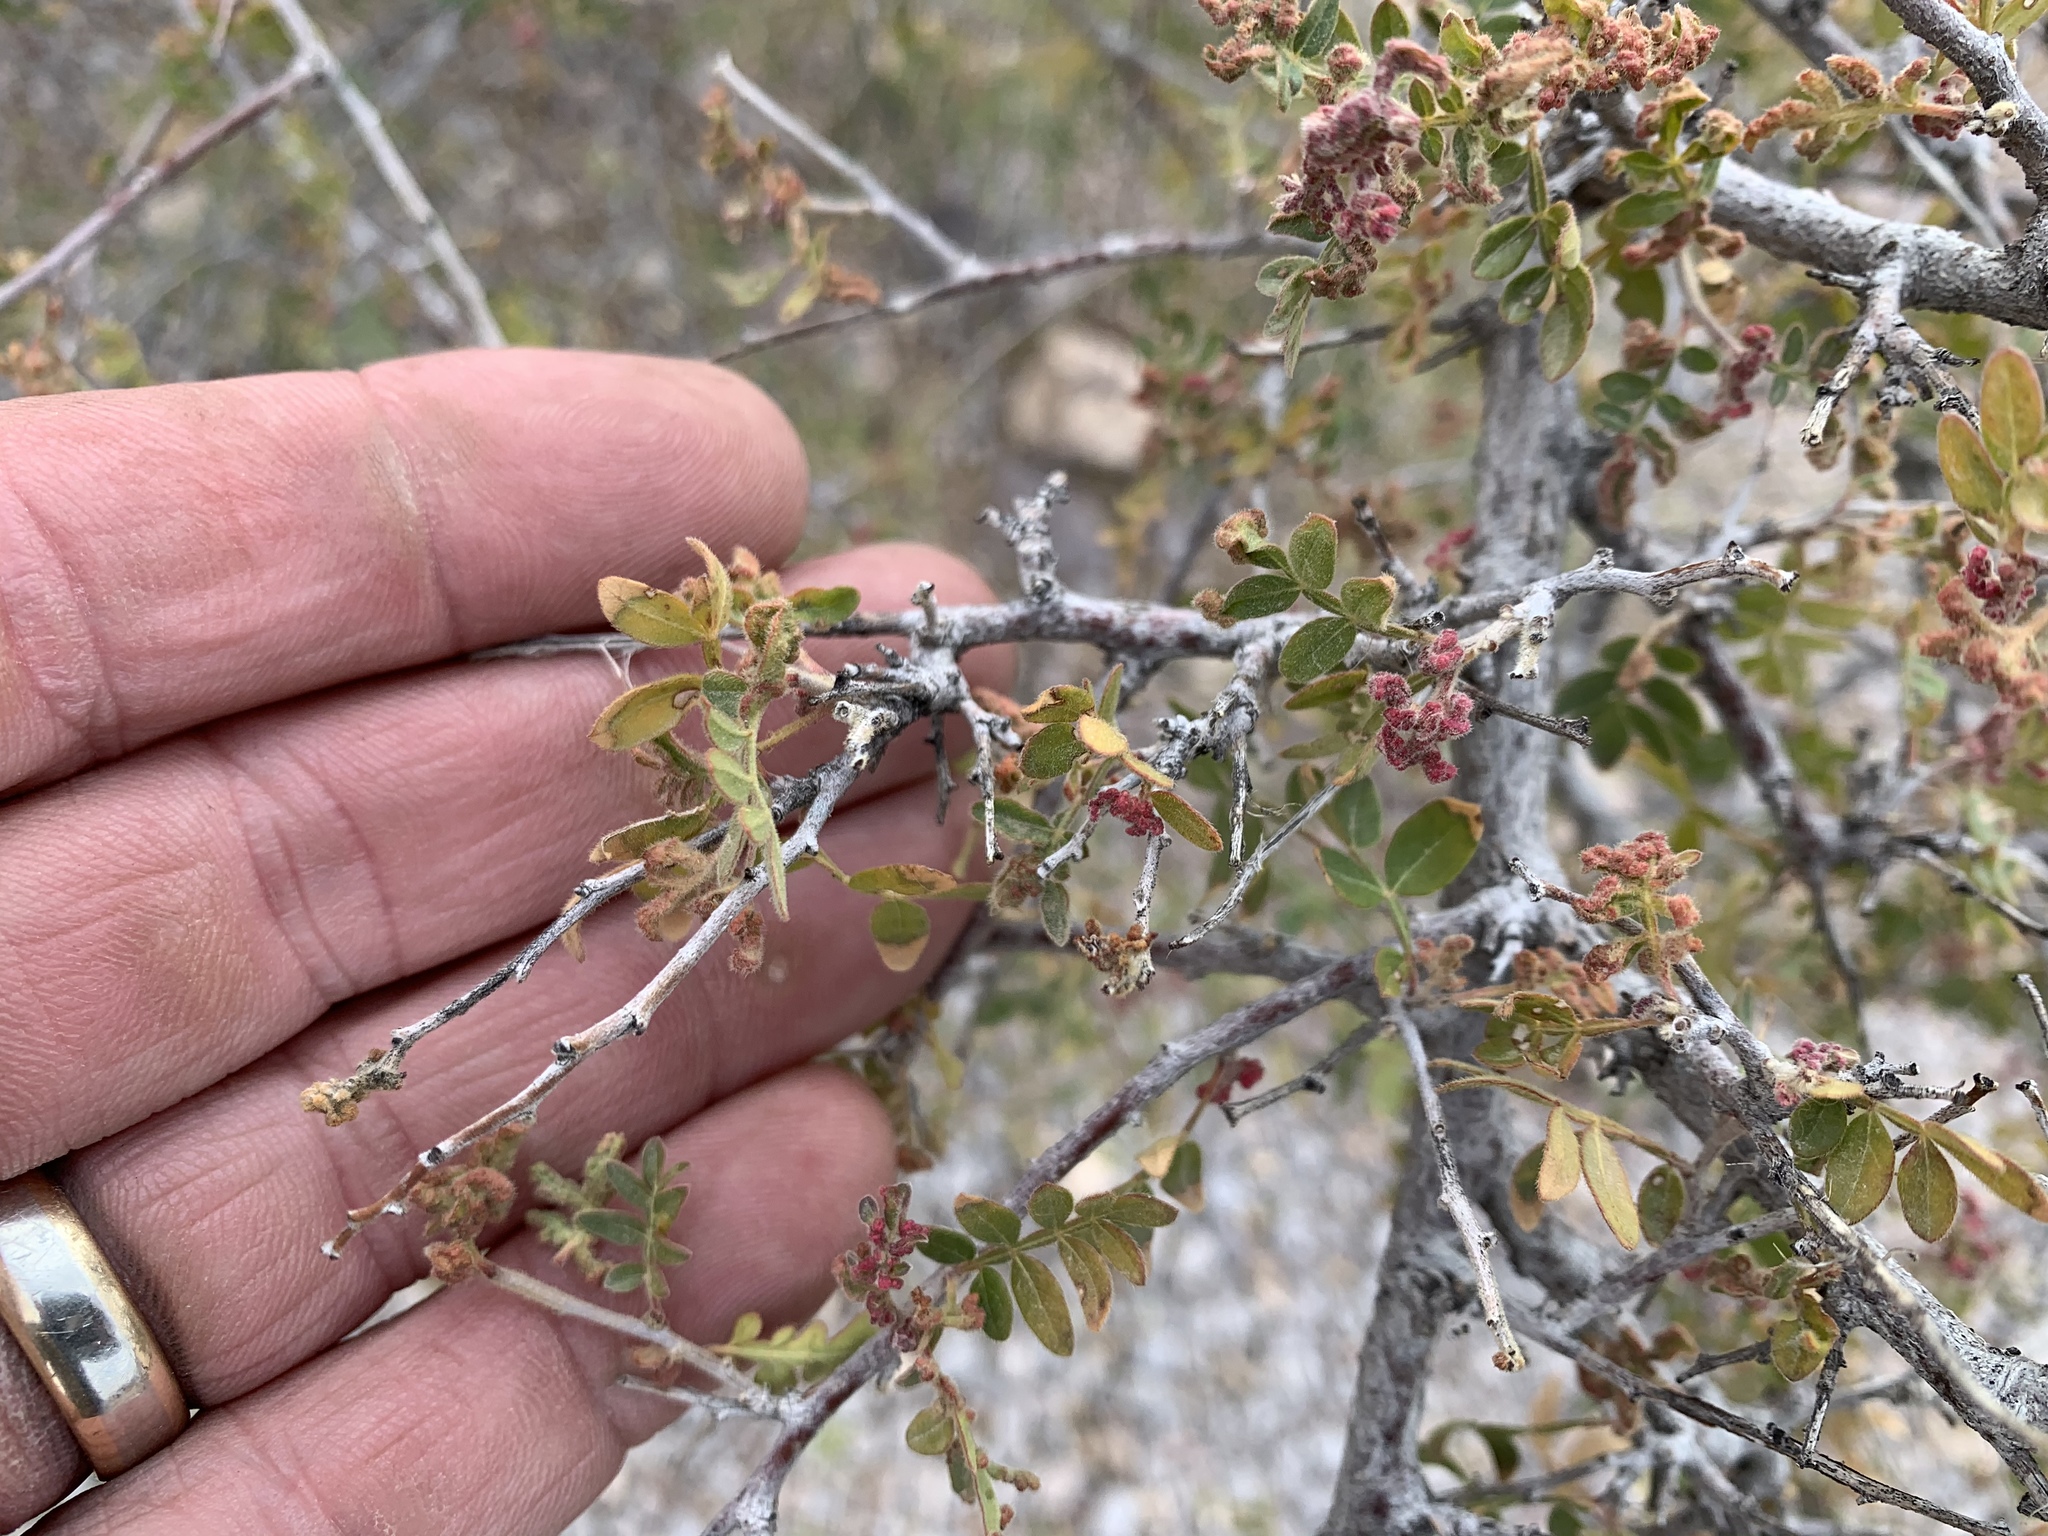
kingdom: Plantae
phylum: Tracheophyta
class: Magnoliopsida
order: Sapindales
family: Anacardiaceae
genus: Rhus
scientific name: Rhus microphylla
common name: Desert sumac
